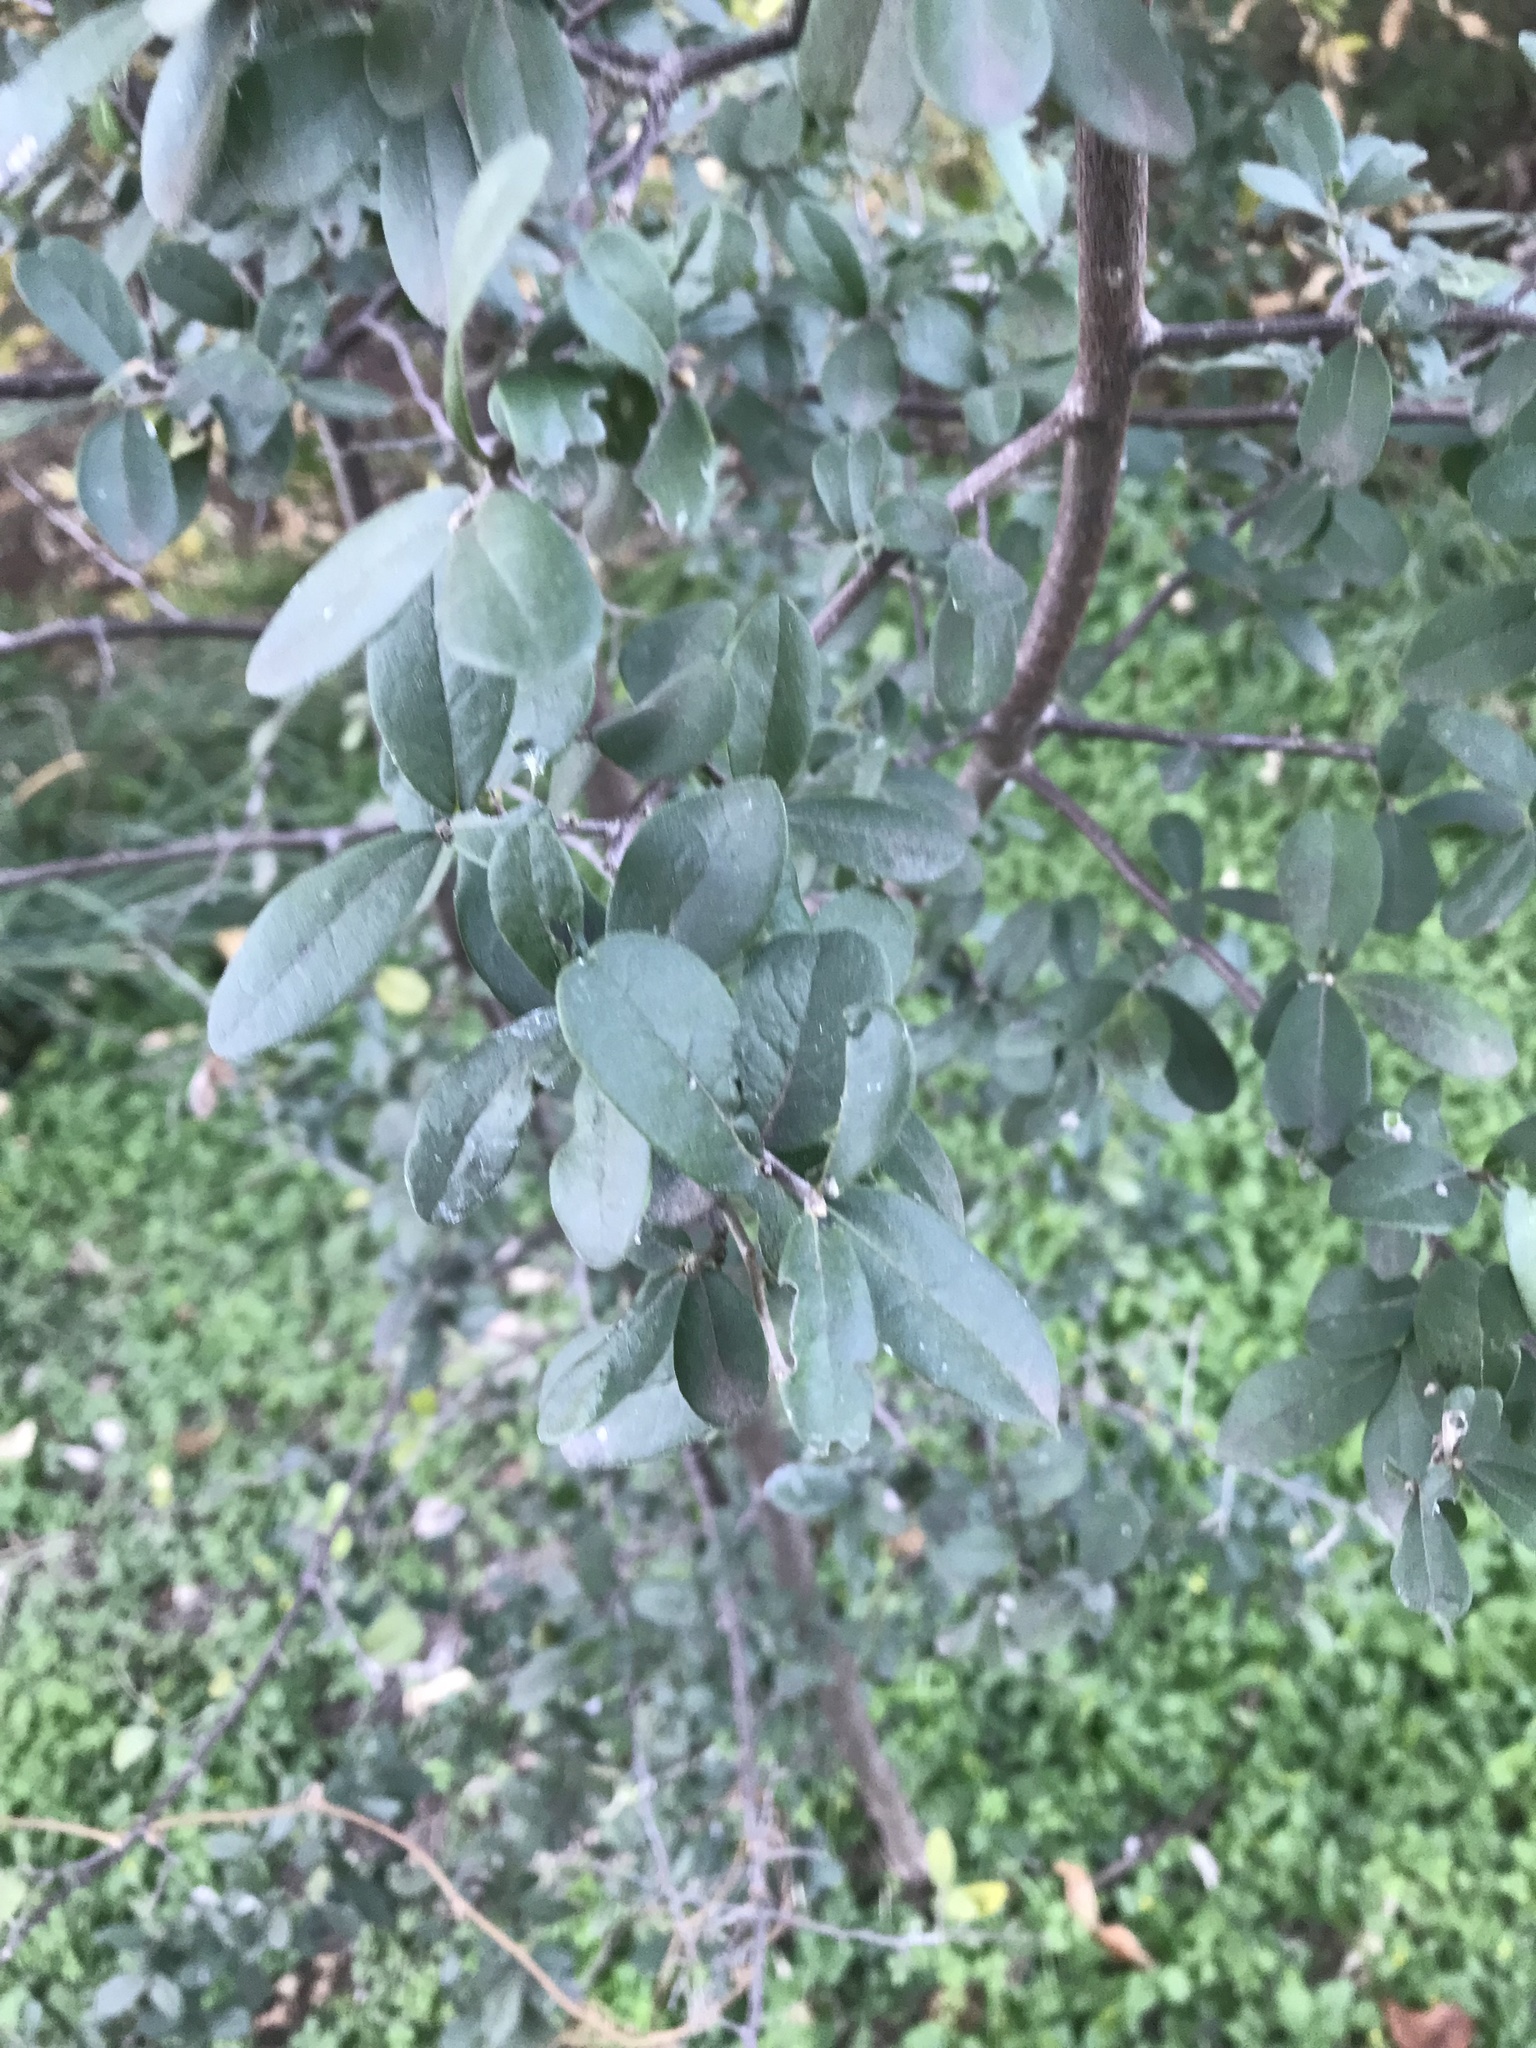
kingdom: Plantae
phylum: Tracheophyta
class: Magnoliopsida
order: Ericales
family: Ebenaceae
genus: Diospyros
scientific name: Diospyros texana
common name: Texas persimmon
